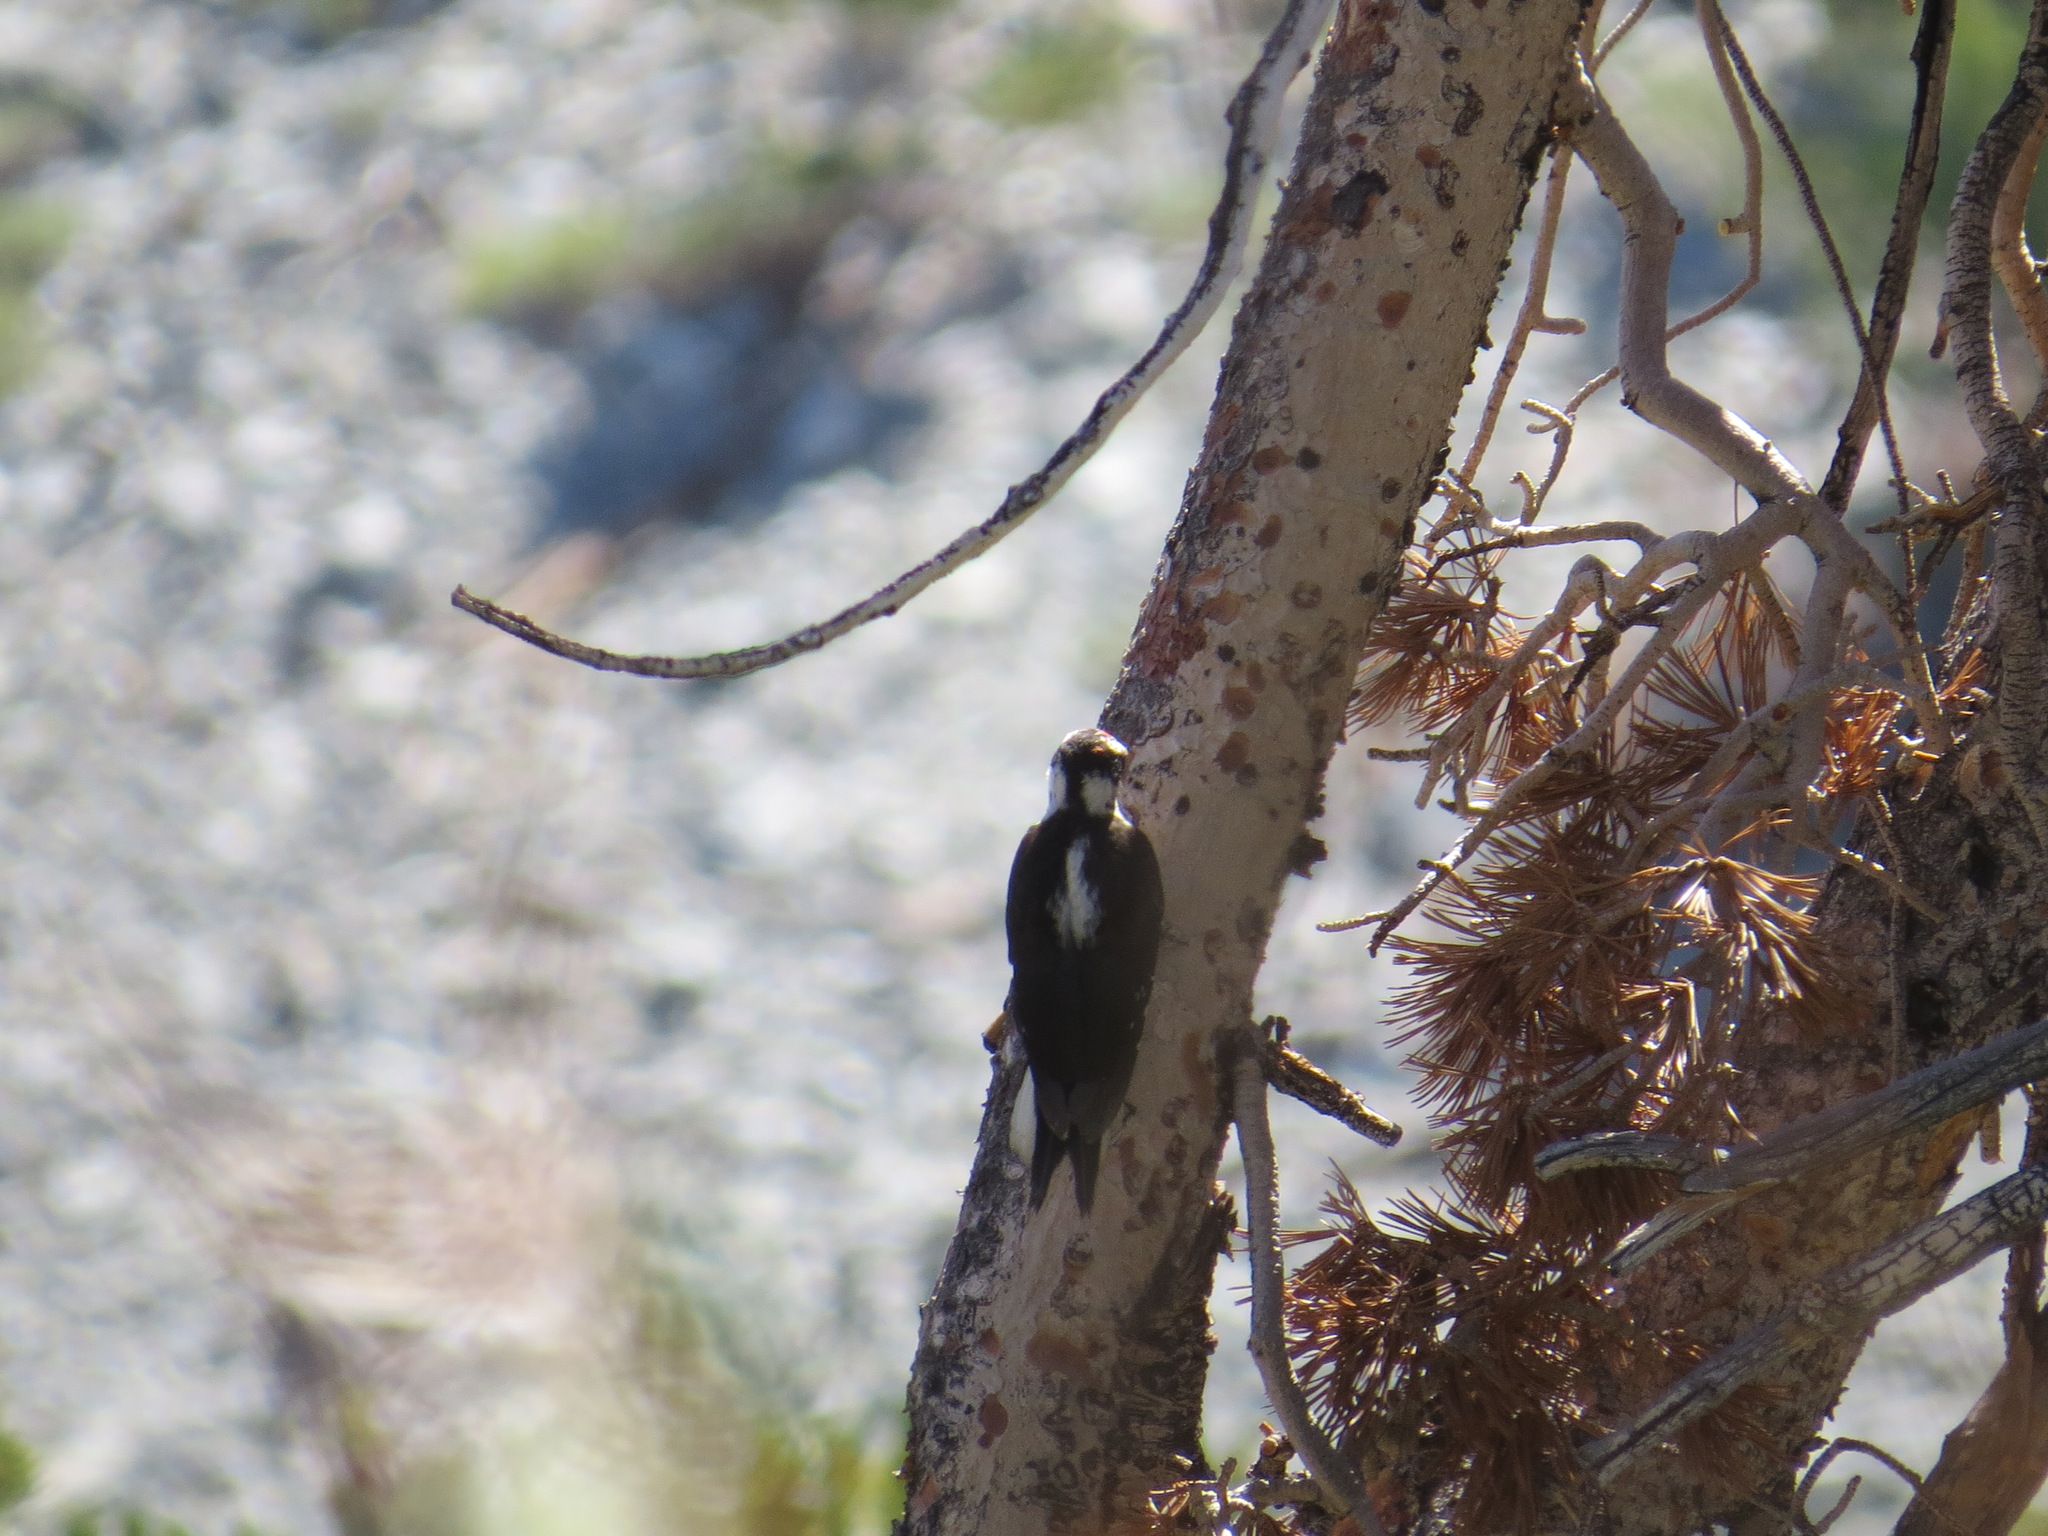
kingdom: Animalia
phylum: Chordata
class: Aves
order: Piciformes
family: Picidae
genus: Leuconotopicus
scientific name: Leuconotopicus villosus
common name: Hairy woodpecker
